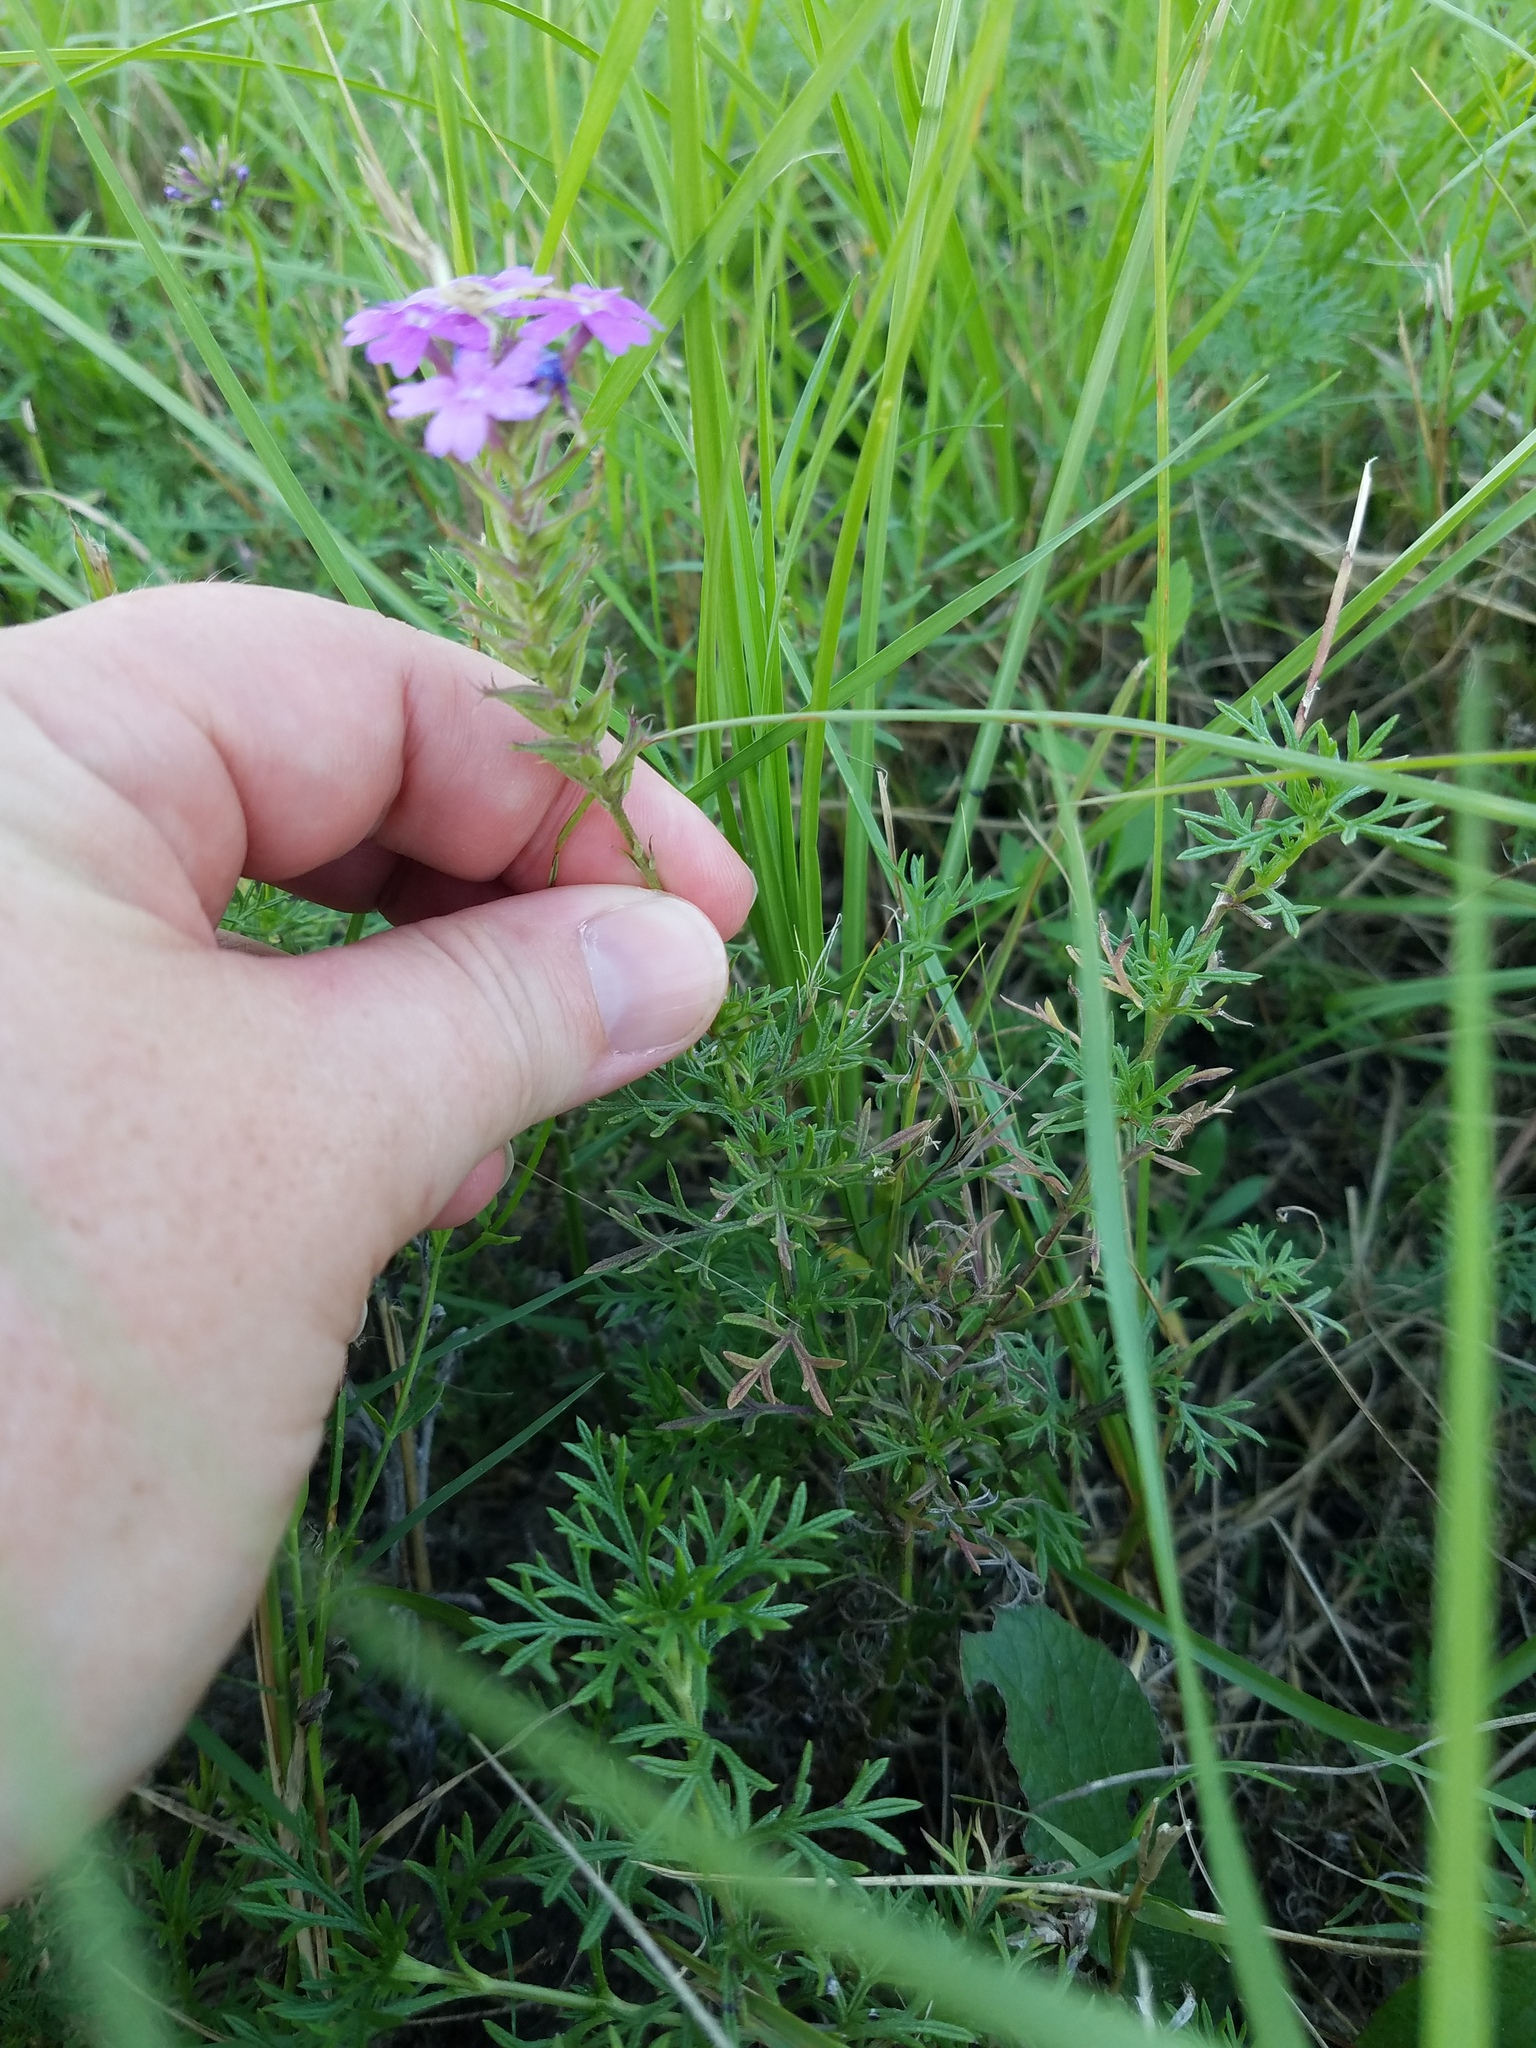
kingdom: Plantae
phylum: Tracheophyta
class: Magnoliopsida
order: Lamiales
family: Verbenaceae
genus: Verbena
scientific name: Verbena
